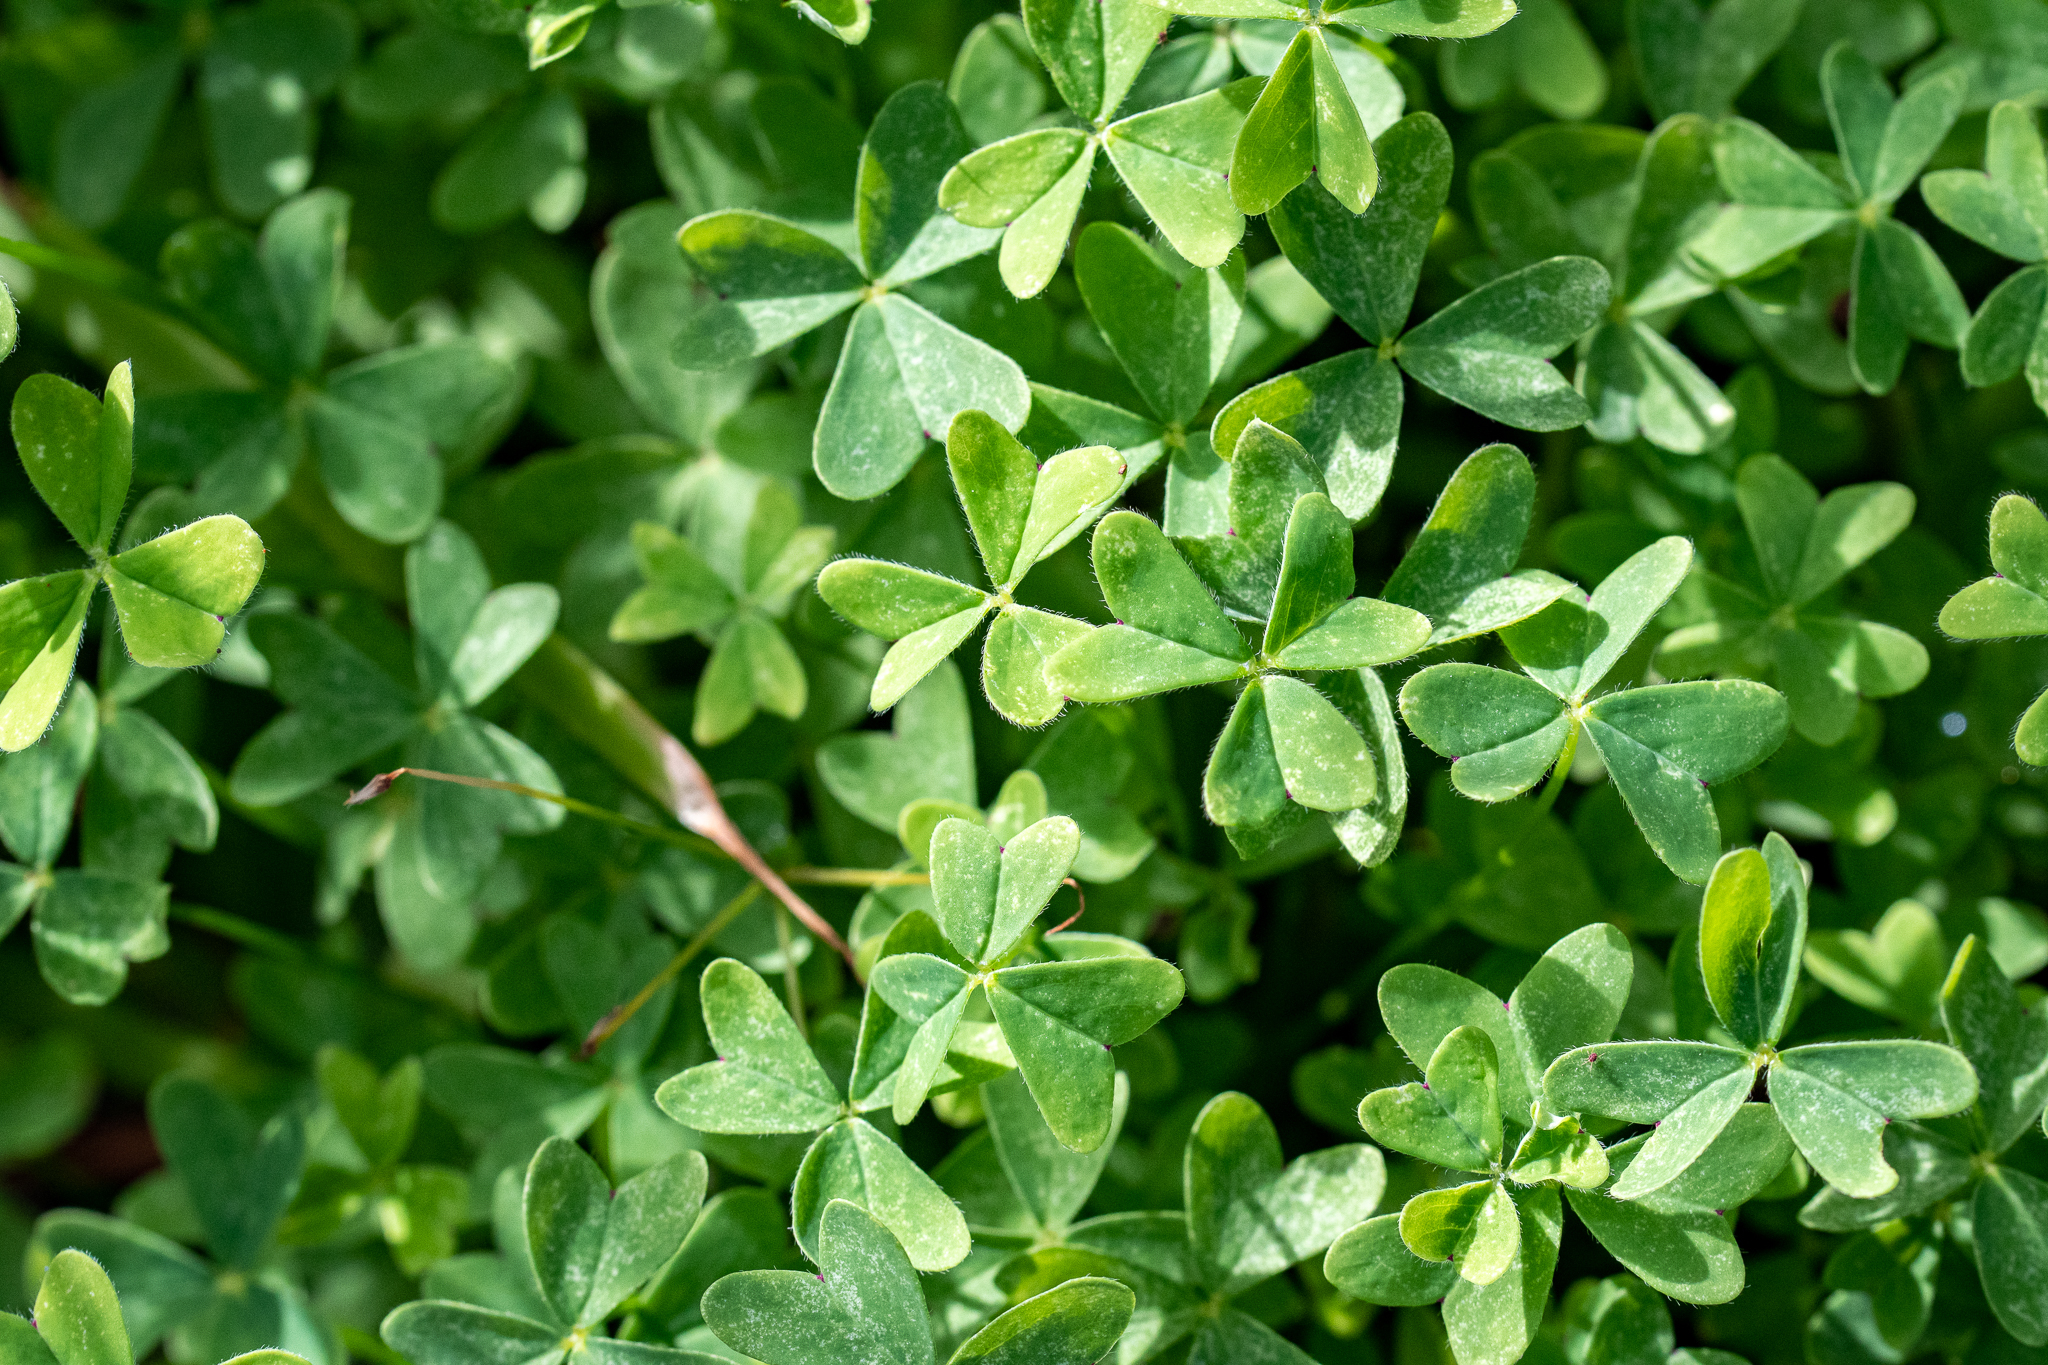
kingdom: Plantae
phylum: Tracheophyta
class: Magnoliopsida
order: Oxalidales
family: Oxalidaceae
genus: Oxalis
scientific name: Oxalis pes-caprae
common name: Bermuda-buttercup
